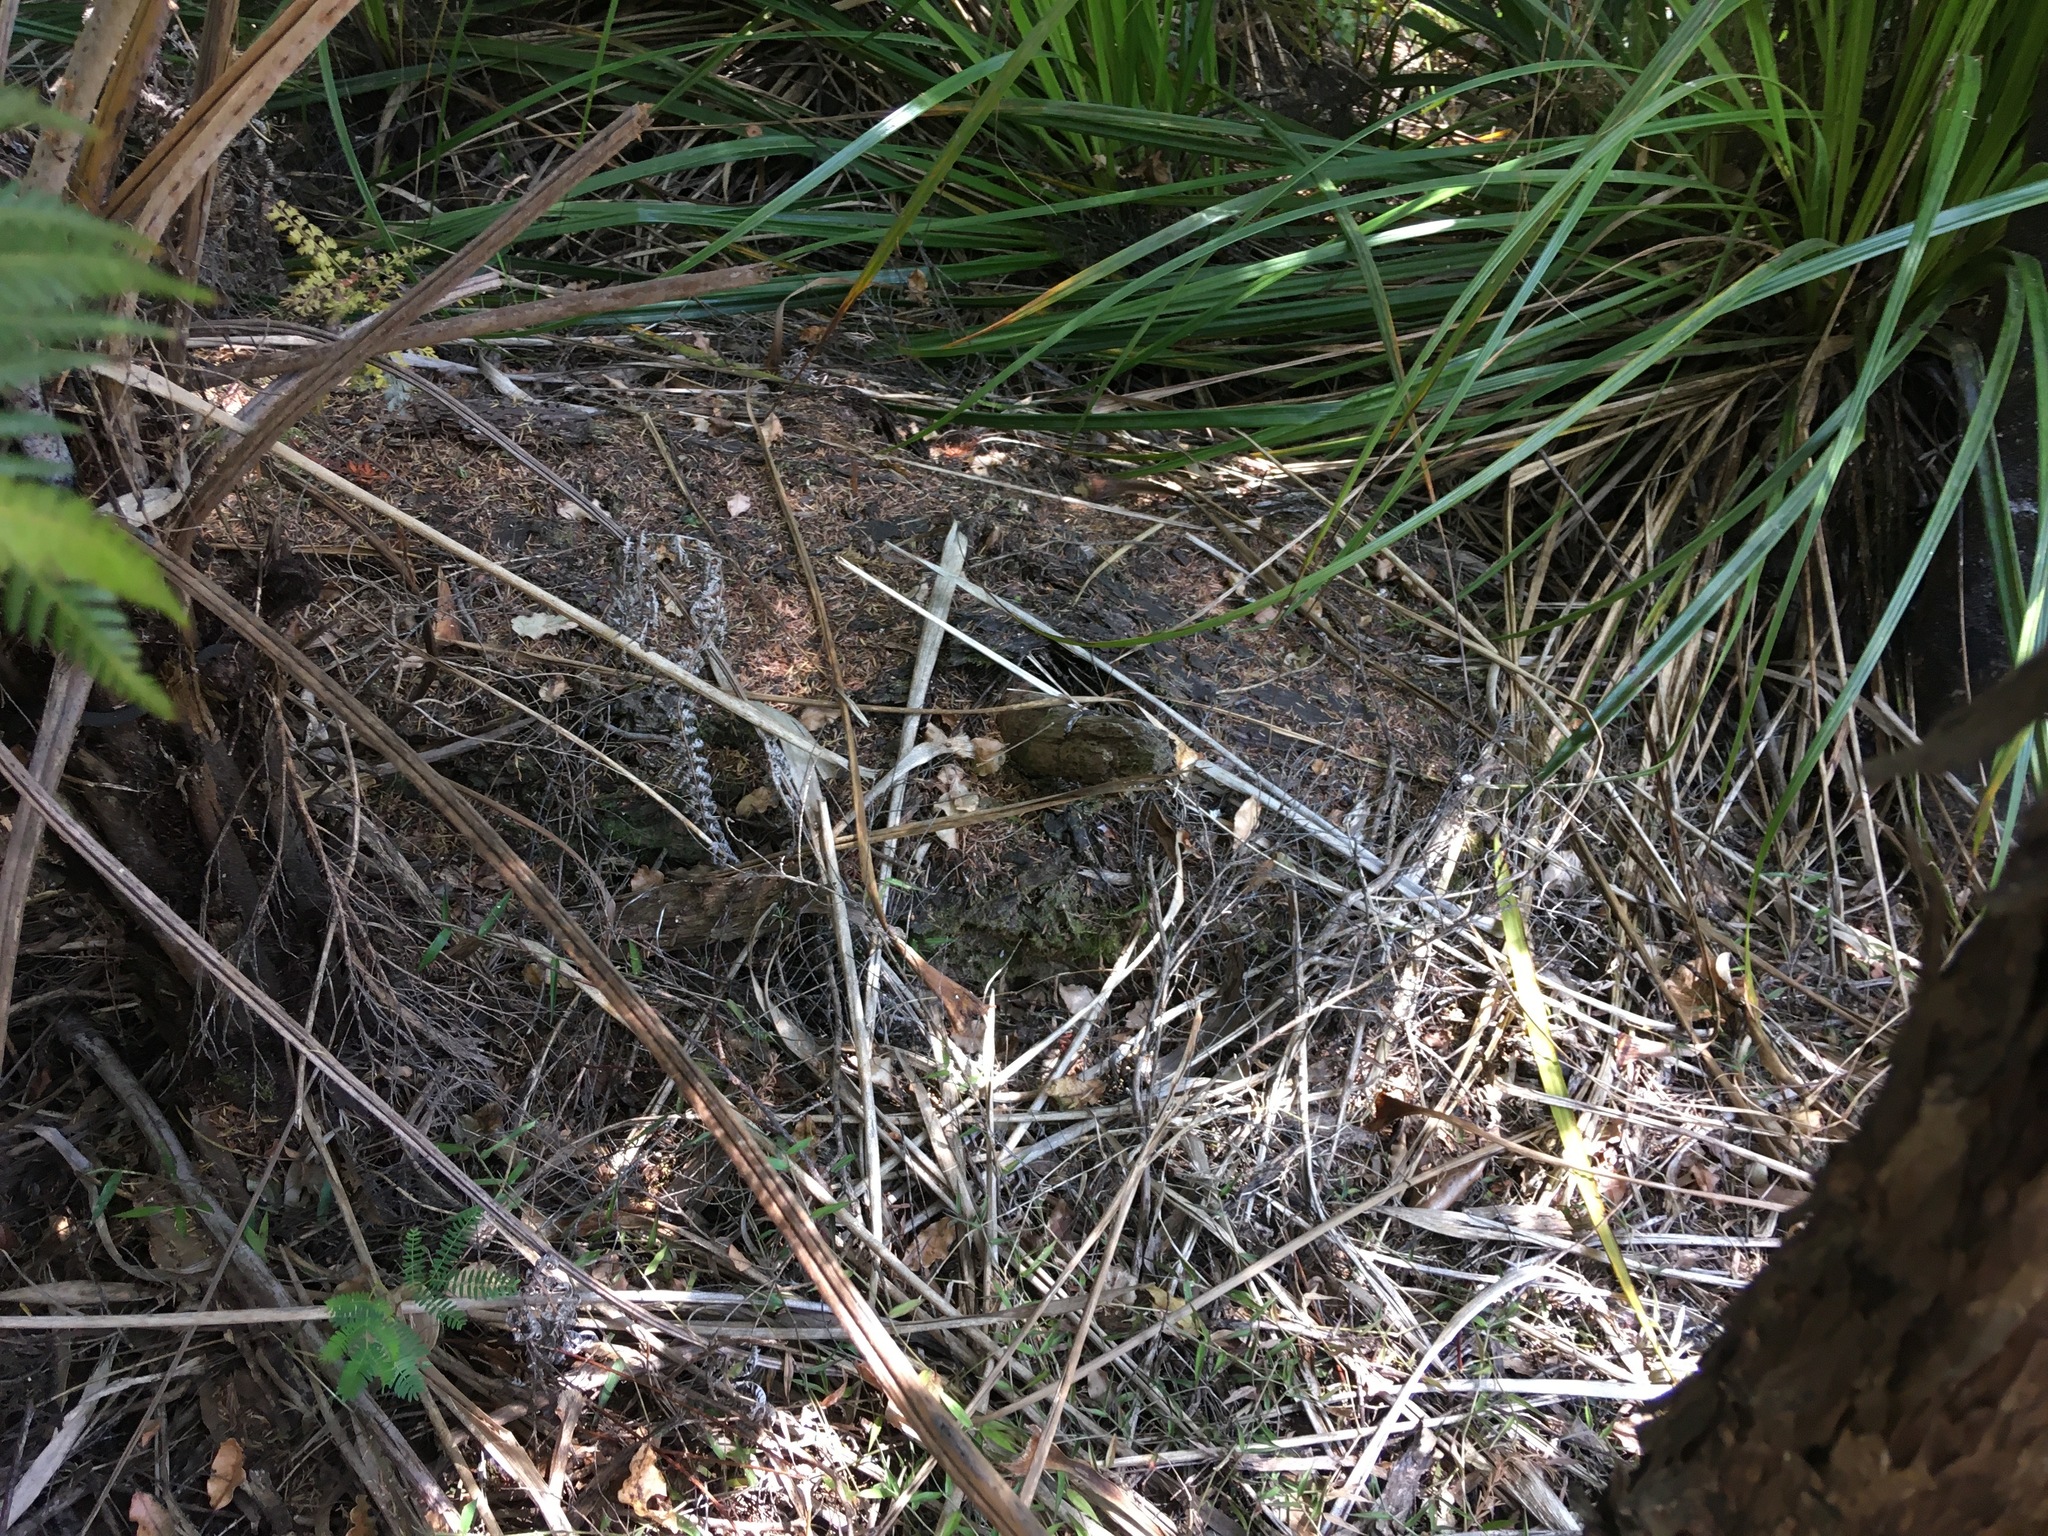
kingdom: Plantae
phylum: Tracheophyta
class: Pinopsida
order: Pinales
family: Phyllocladaceae
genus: Phyllocladus
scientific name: Phyllocladus trichomanoides
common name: Celery pine
